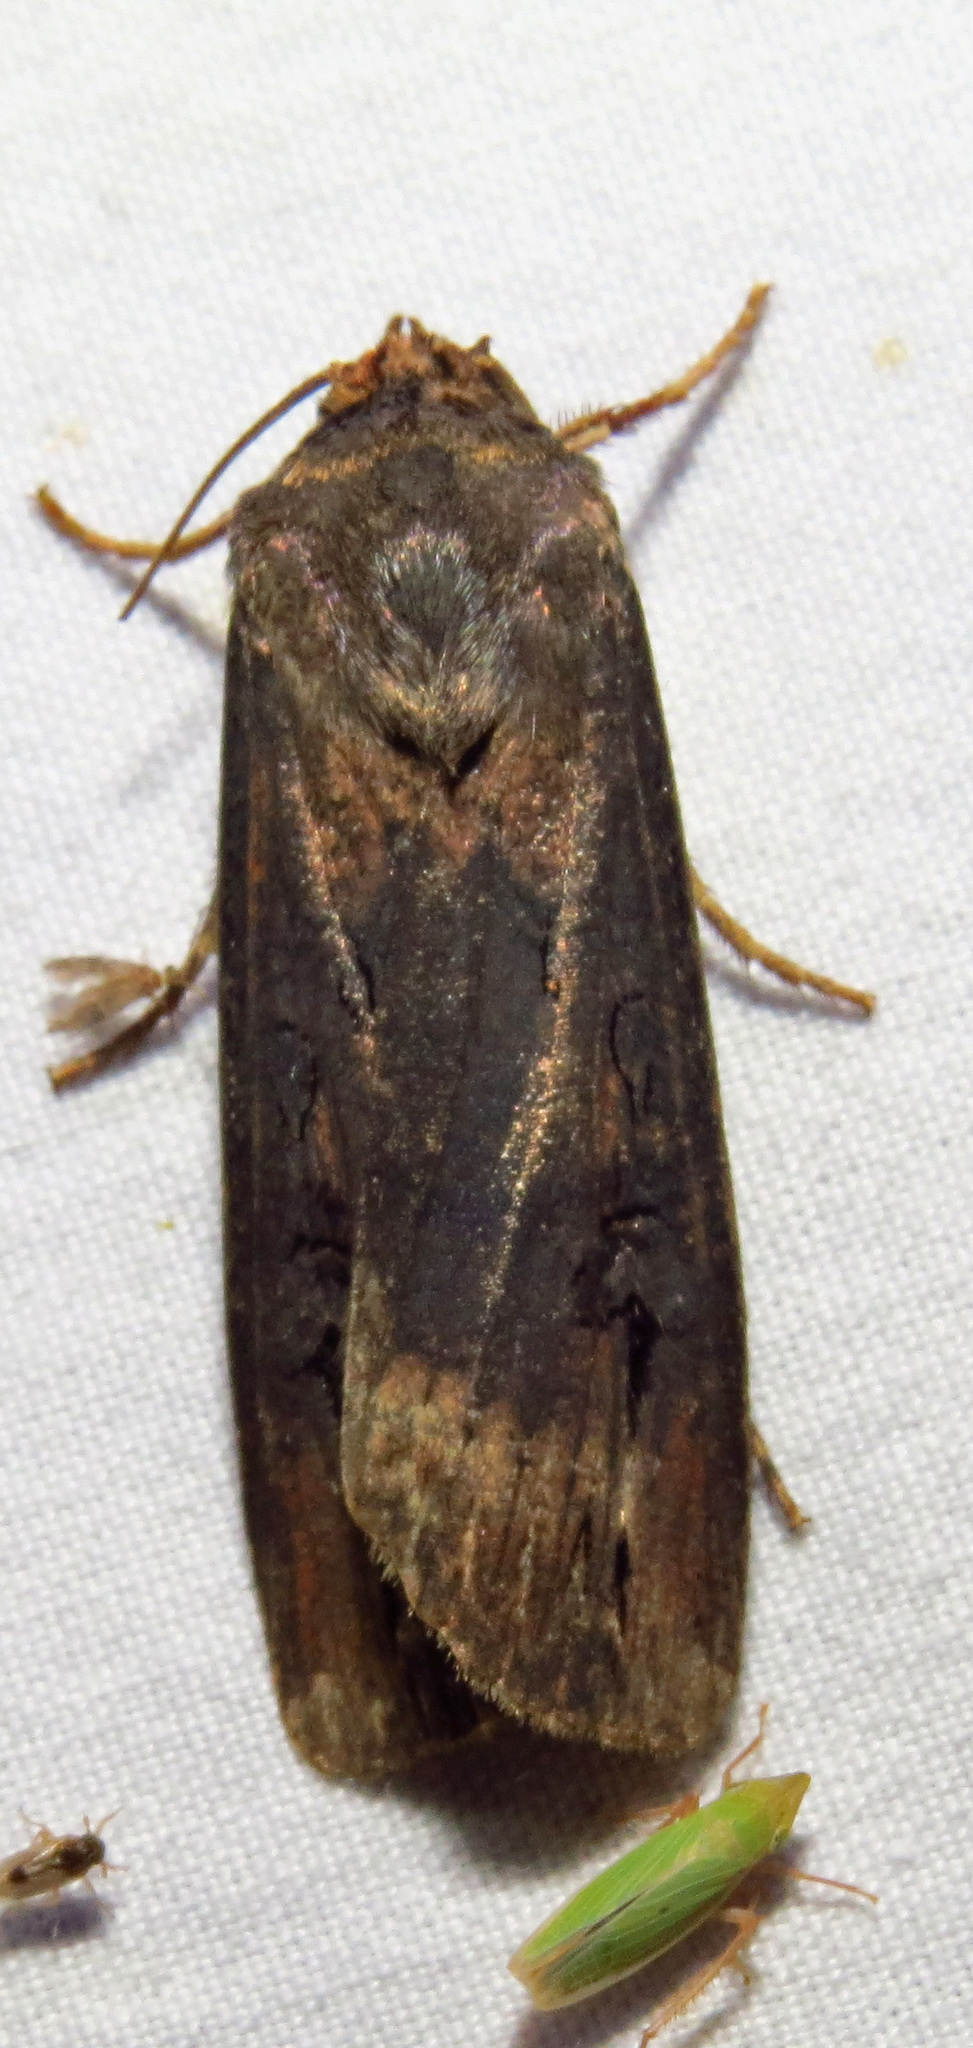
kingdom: Animalia
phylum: Arthropoda
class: Insecta
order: Lepidoptera
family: Noctuidae
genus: Agrotis
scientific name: Agrotis ipsilon
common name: Dark sword-grass
